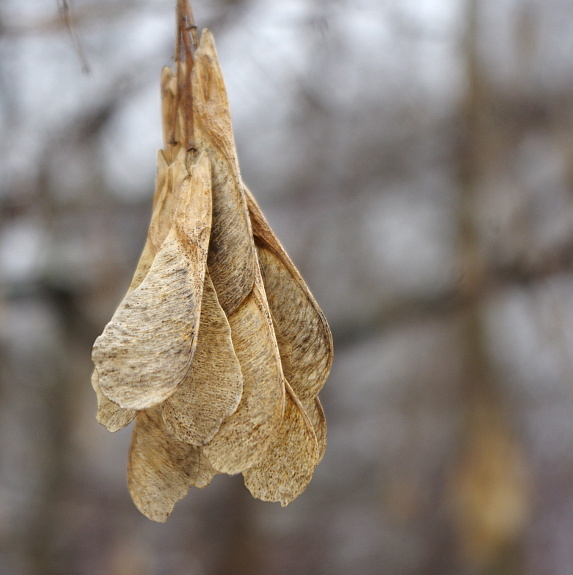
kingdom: Plantae
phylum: Tracheophyta
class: Magnoliopsida
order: Sapindales
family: Sapindaceae
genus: Acer
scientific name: Acer negundo
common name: Ashleaf maple
